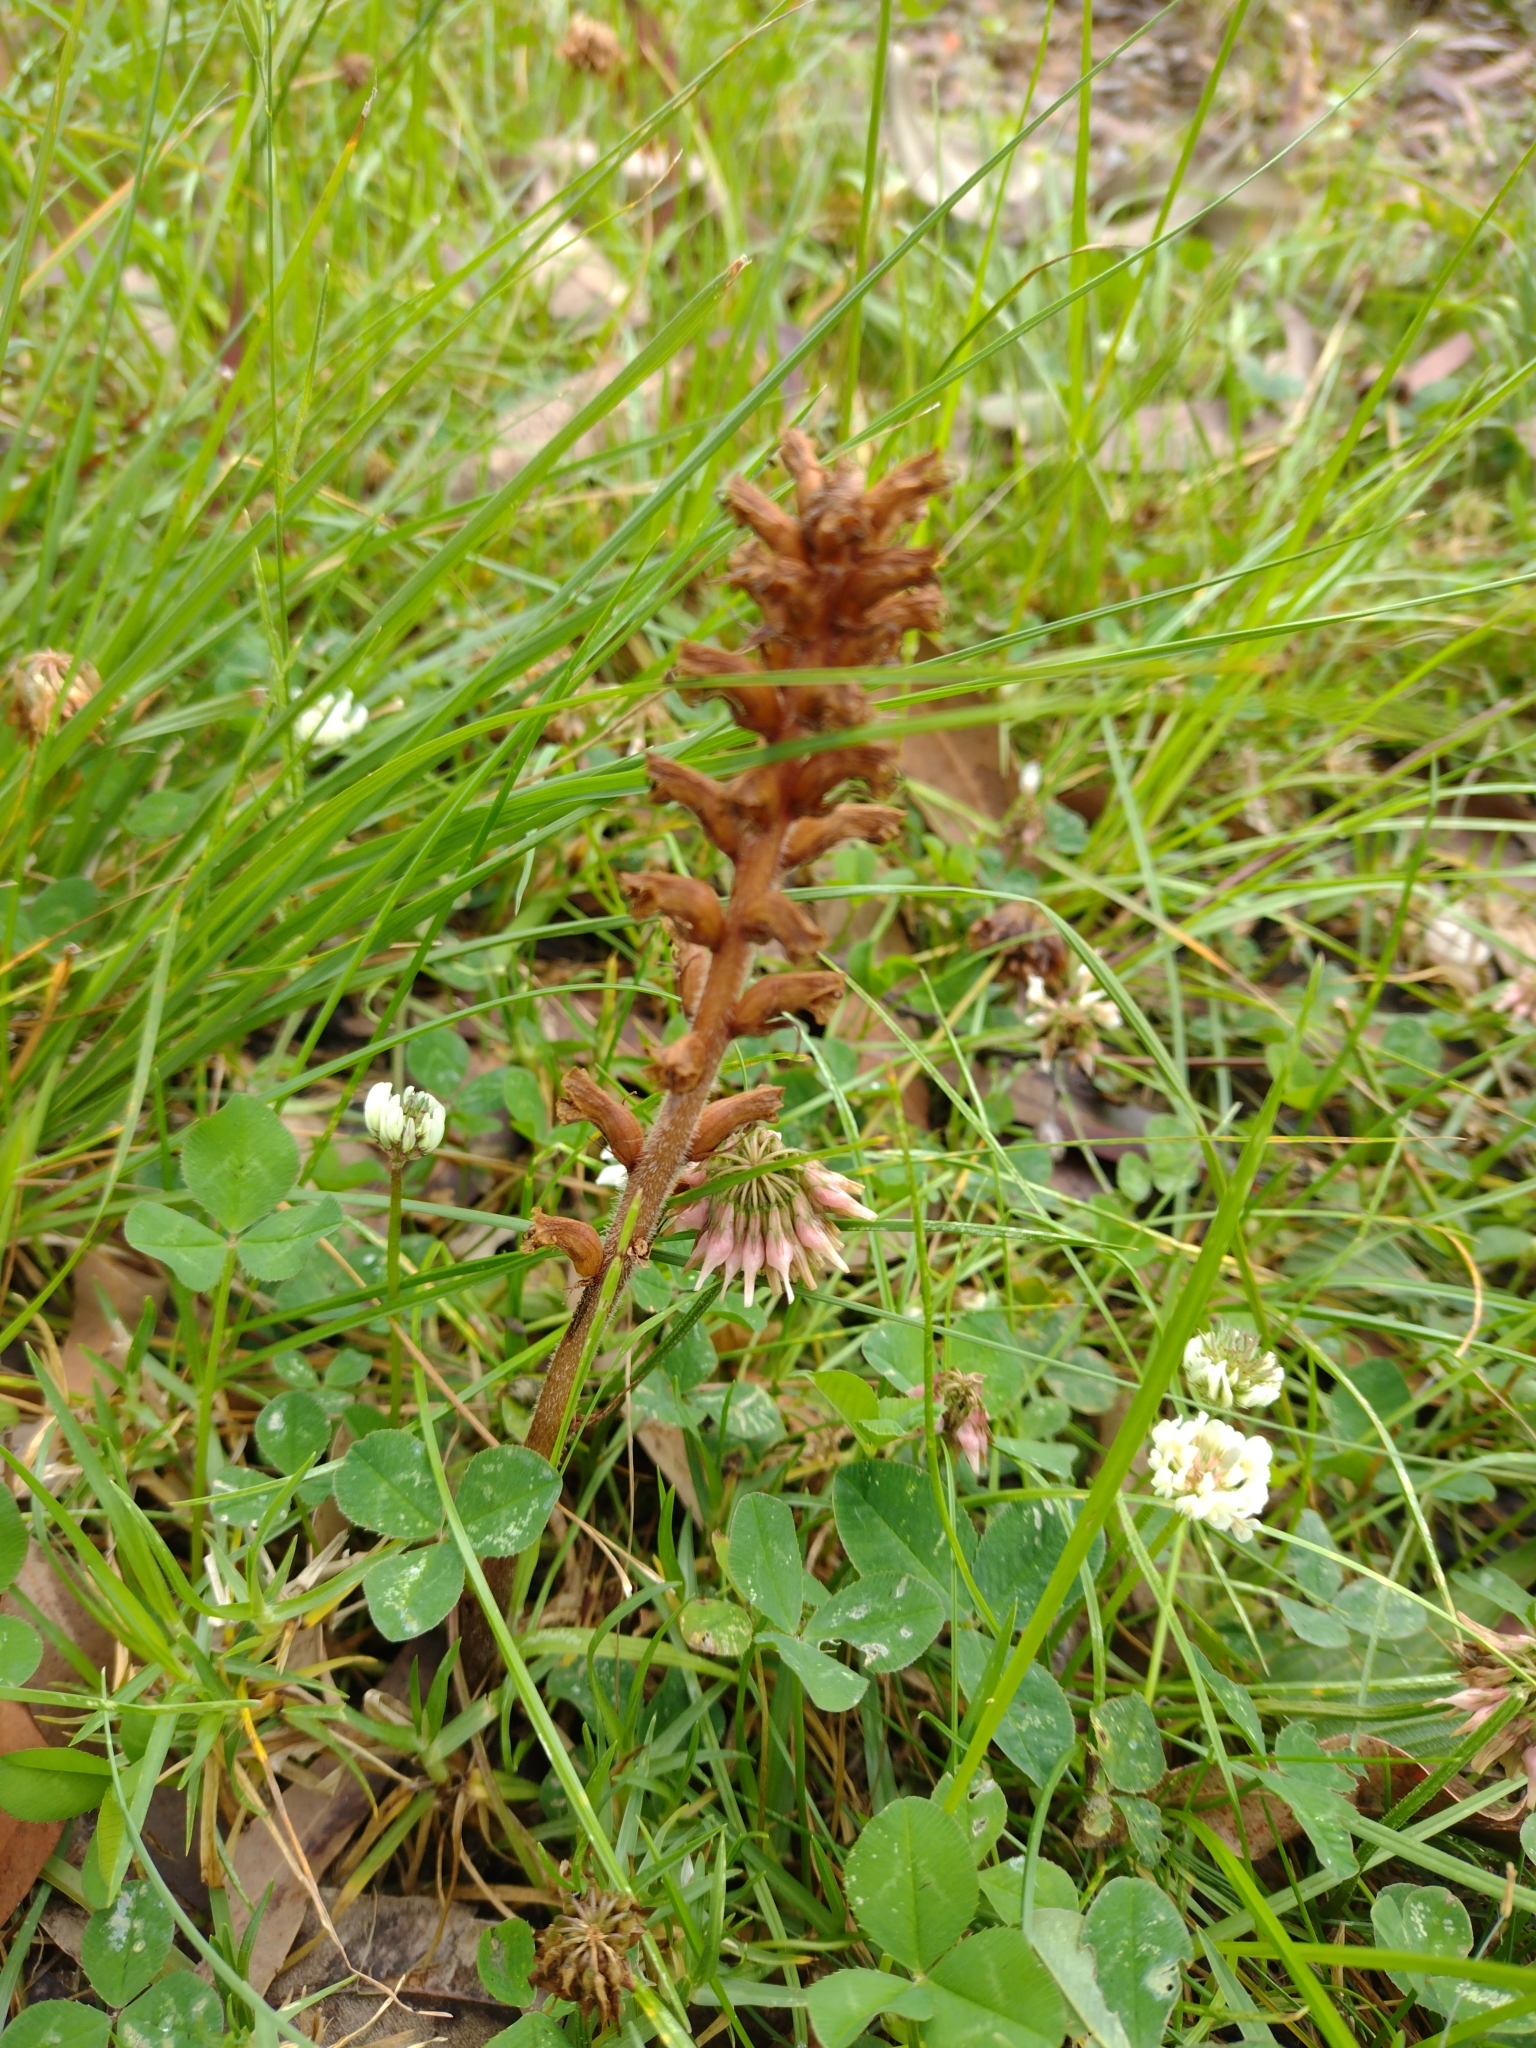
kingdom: Plantae
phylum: Tracheophyta
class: Magnoliopsida
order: Lamiales
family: Orobanchaceae
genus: Orobanche
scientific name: Orobanche minor
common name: Common broomrape
